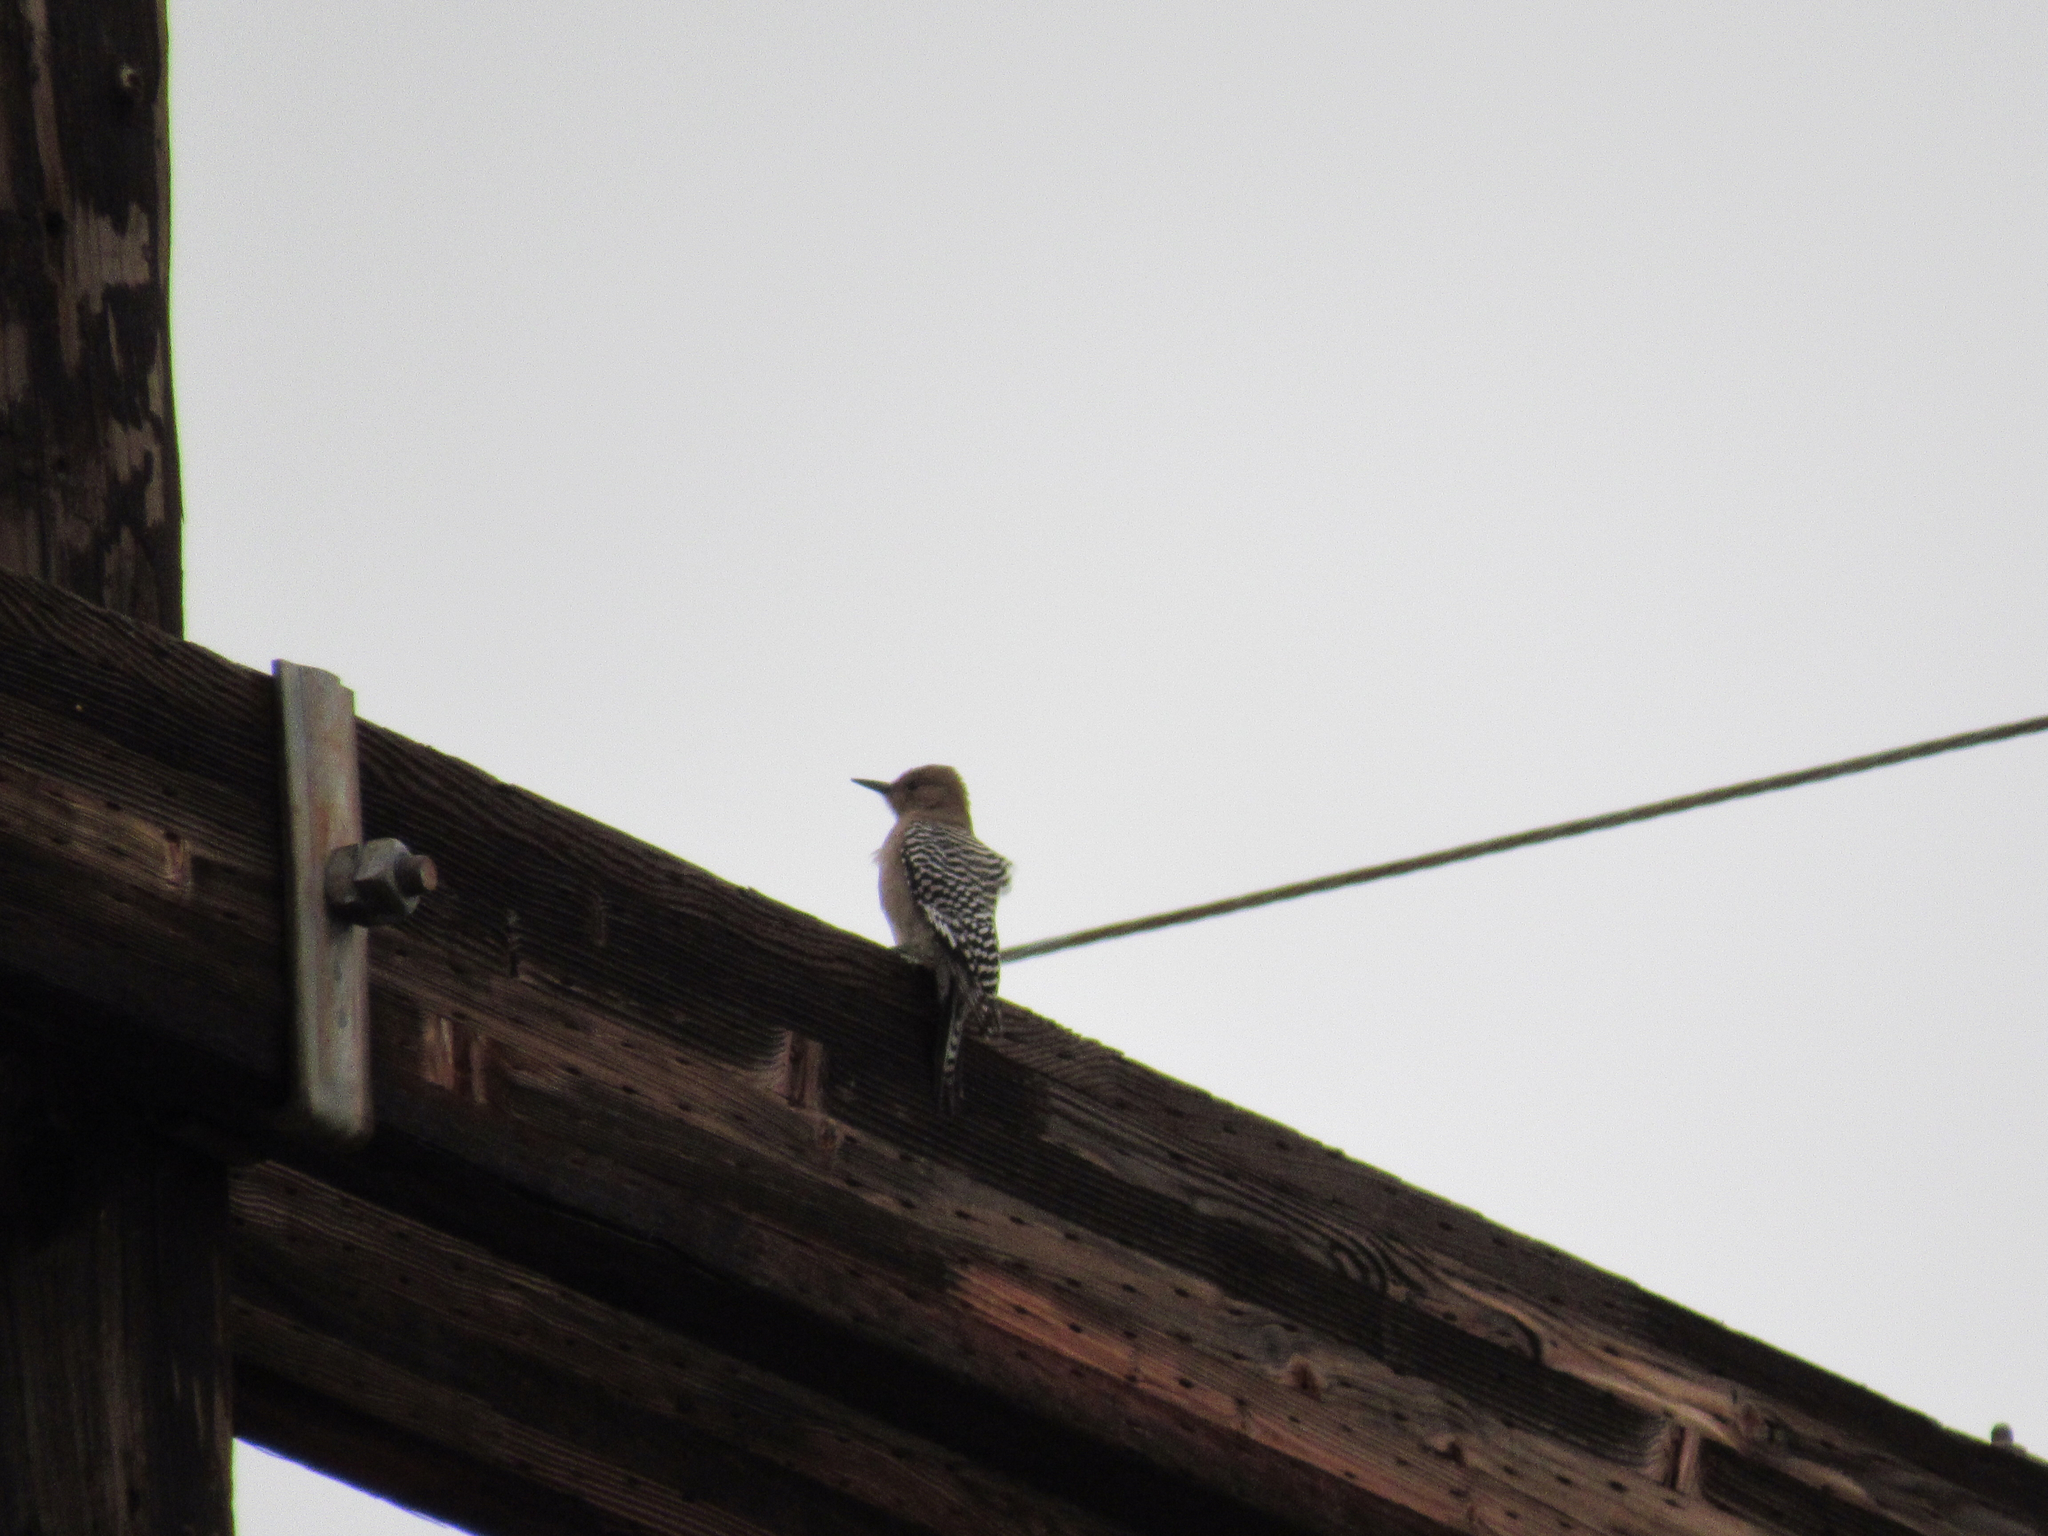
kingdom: Animalia
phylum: Chordata
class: Aves
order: Piciformes
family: Picidae
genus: Melanerpes
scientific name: Melanerpes uropygialis
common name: Gila woodpecker
